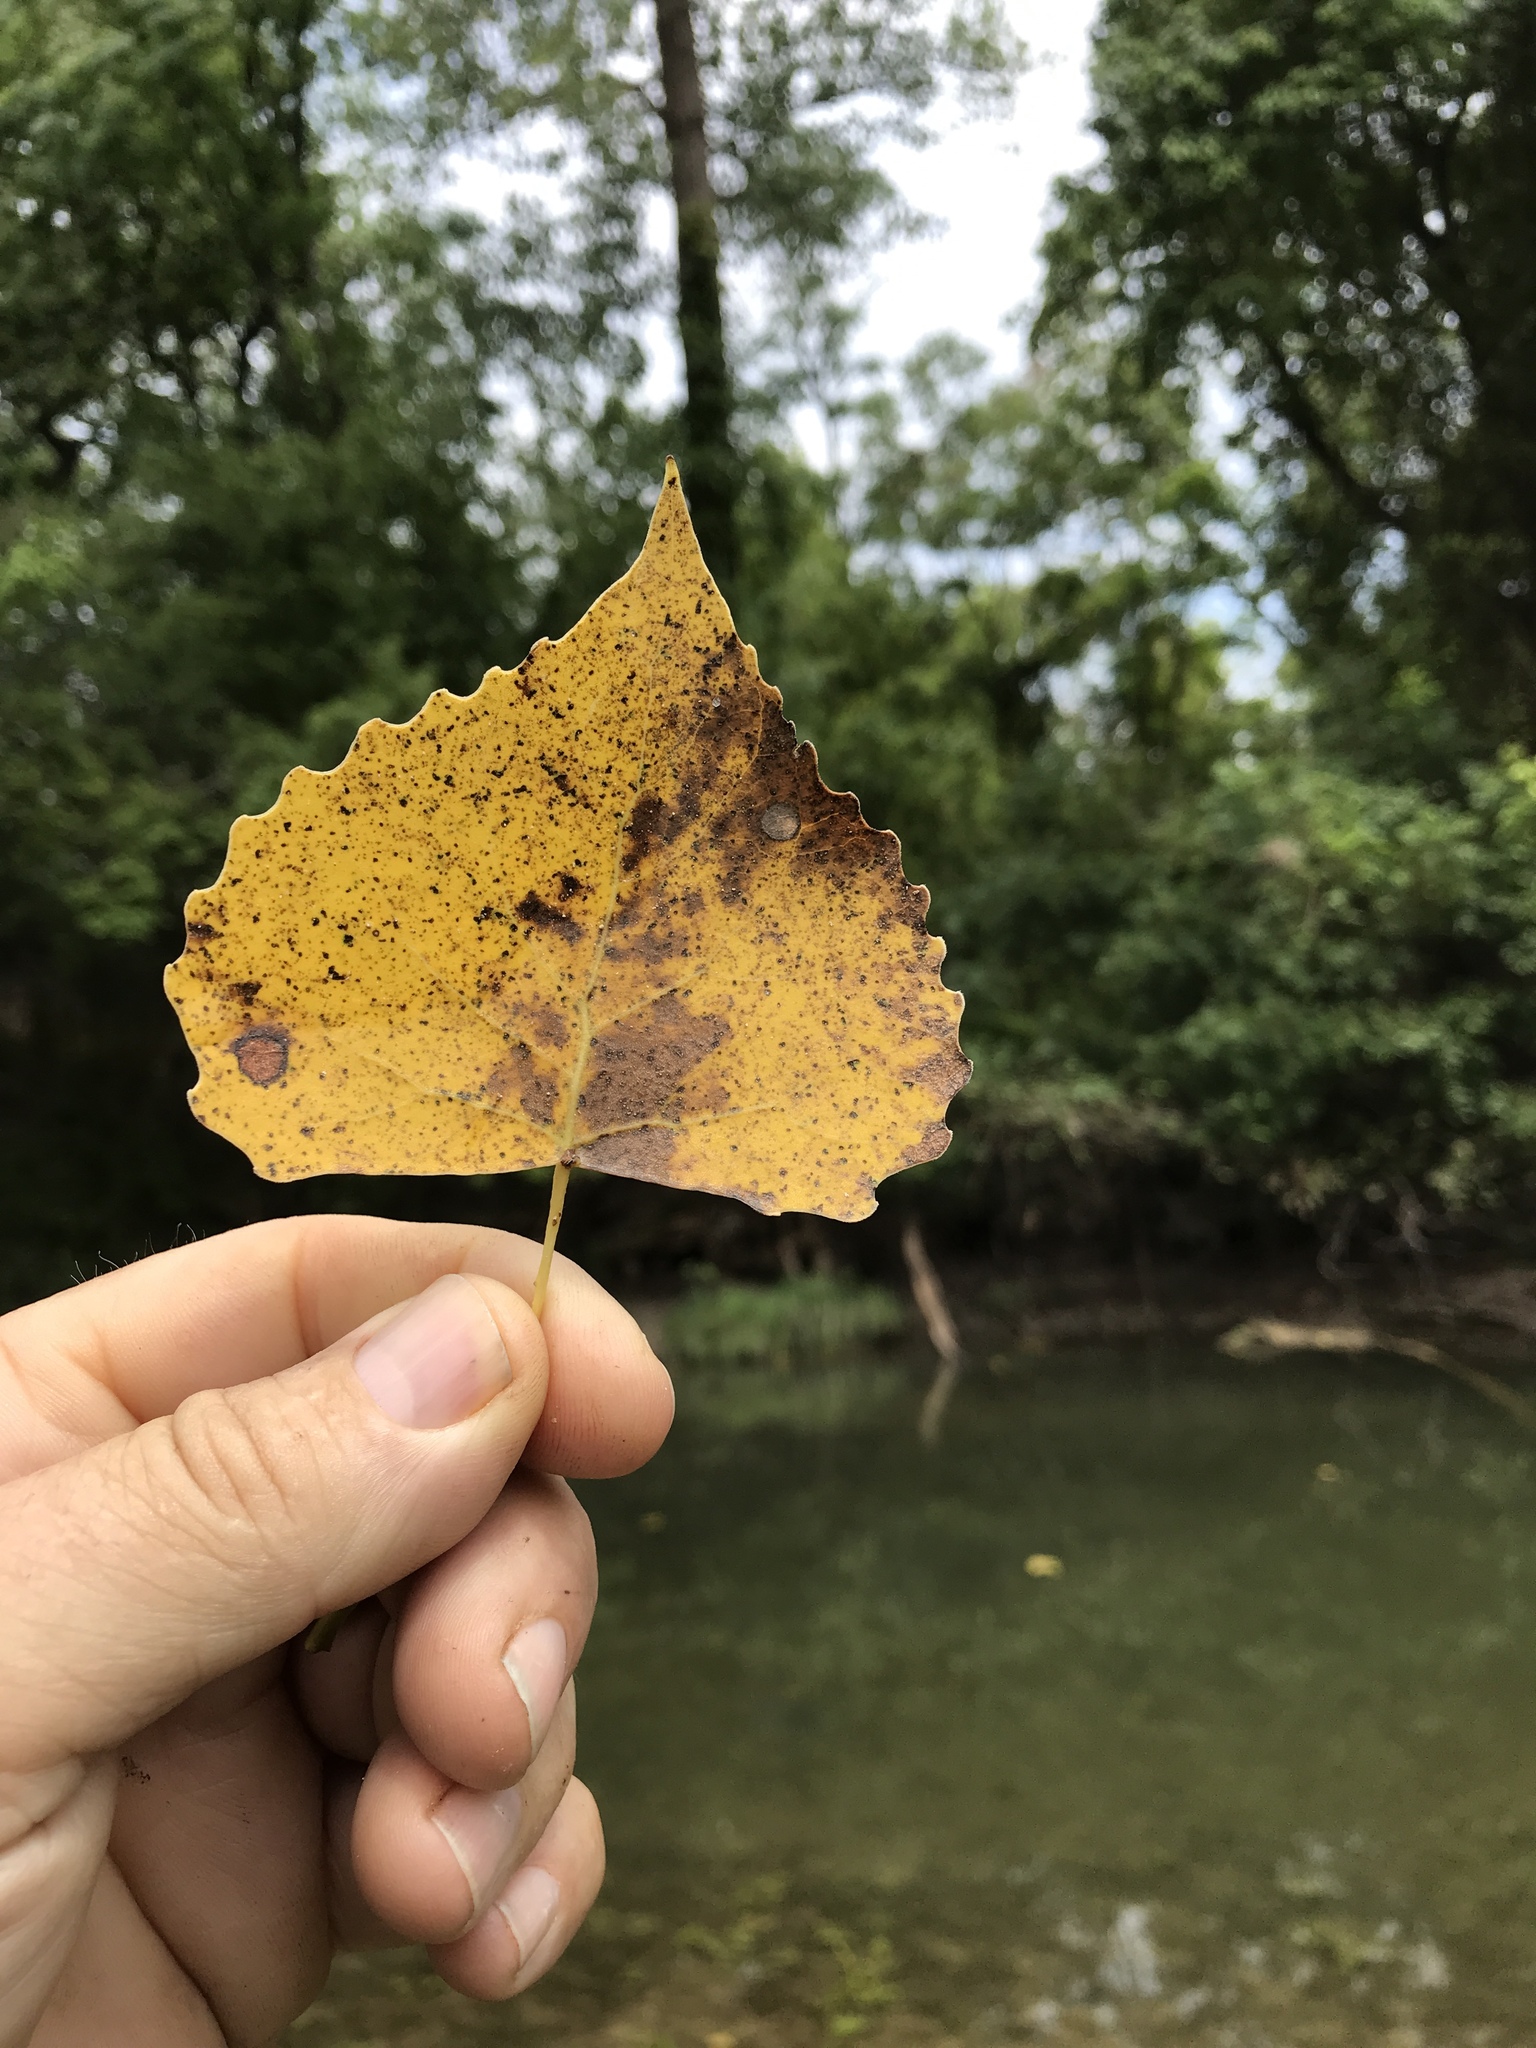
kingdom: Plantae
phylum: Tracheophyta
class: Magnoliopsida
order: Malpighiales
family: Salicaceae
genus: Populus
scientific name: Populus deltoides
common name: Eastern cottonwood
